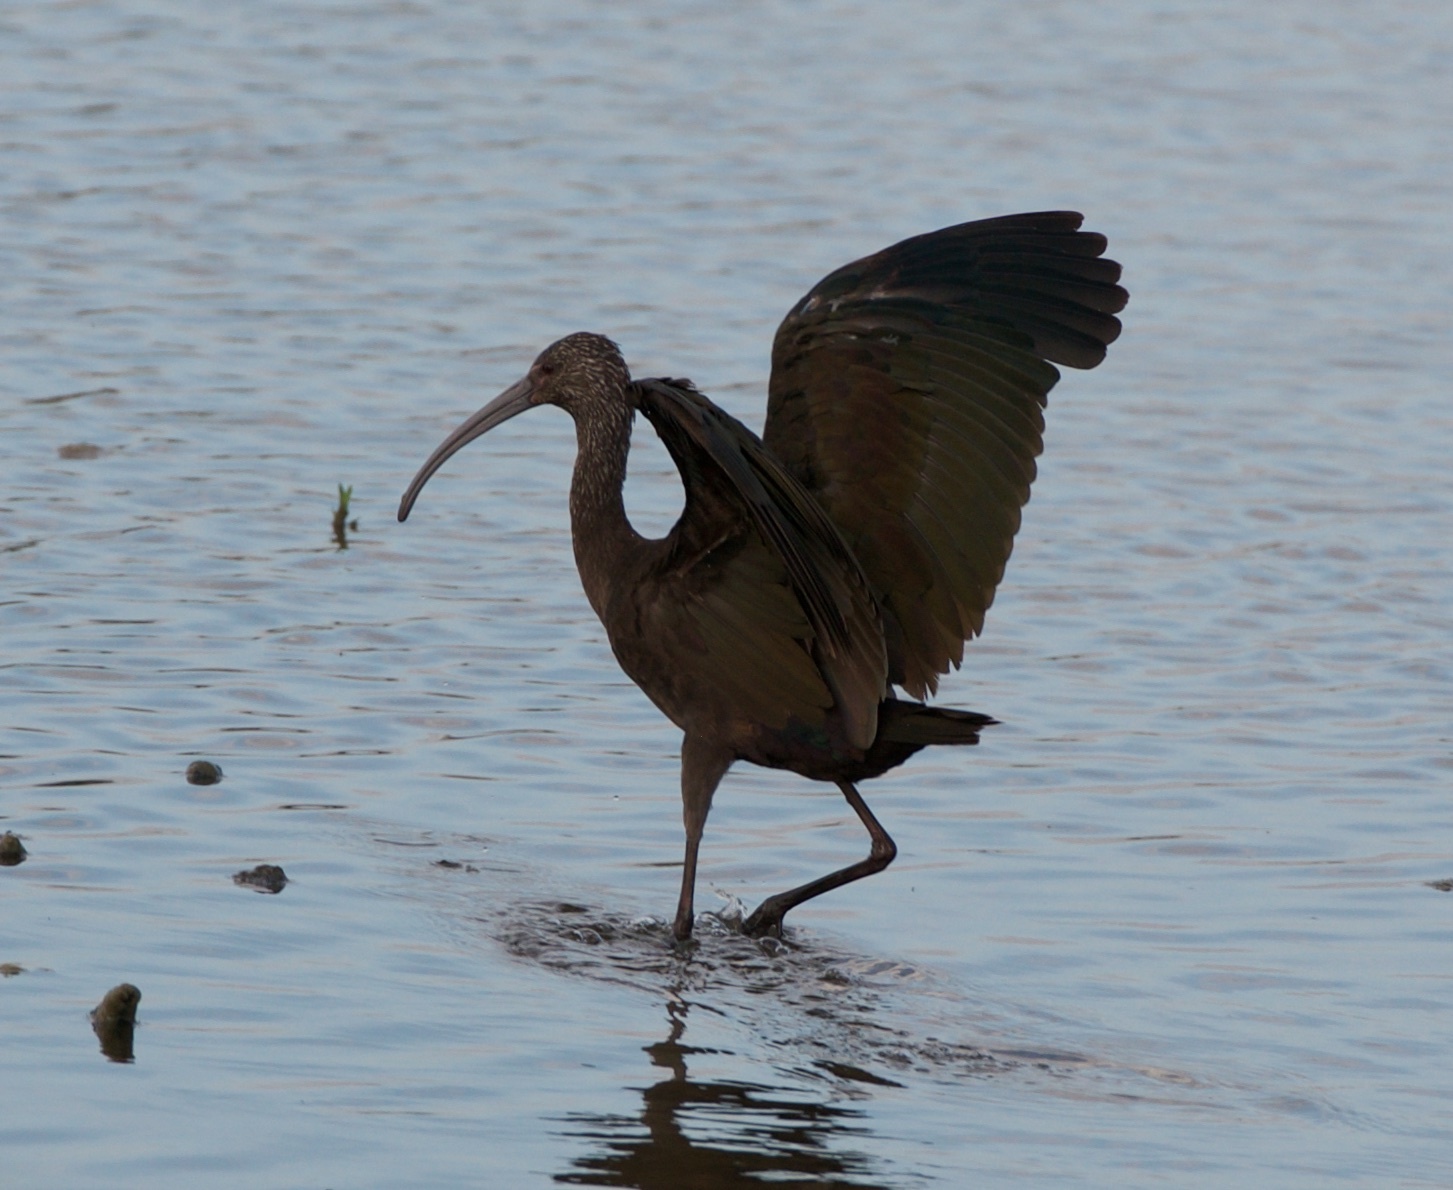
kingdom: Animalia
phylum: Chordata
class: Aves
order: Pelecaniformes
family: Threskiornithidae
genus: Plegadis
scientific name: Plegadis chihi
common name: White-faced ibis
